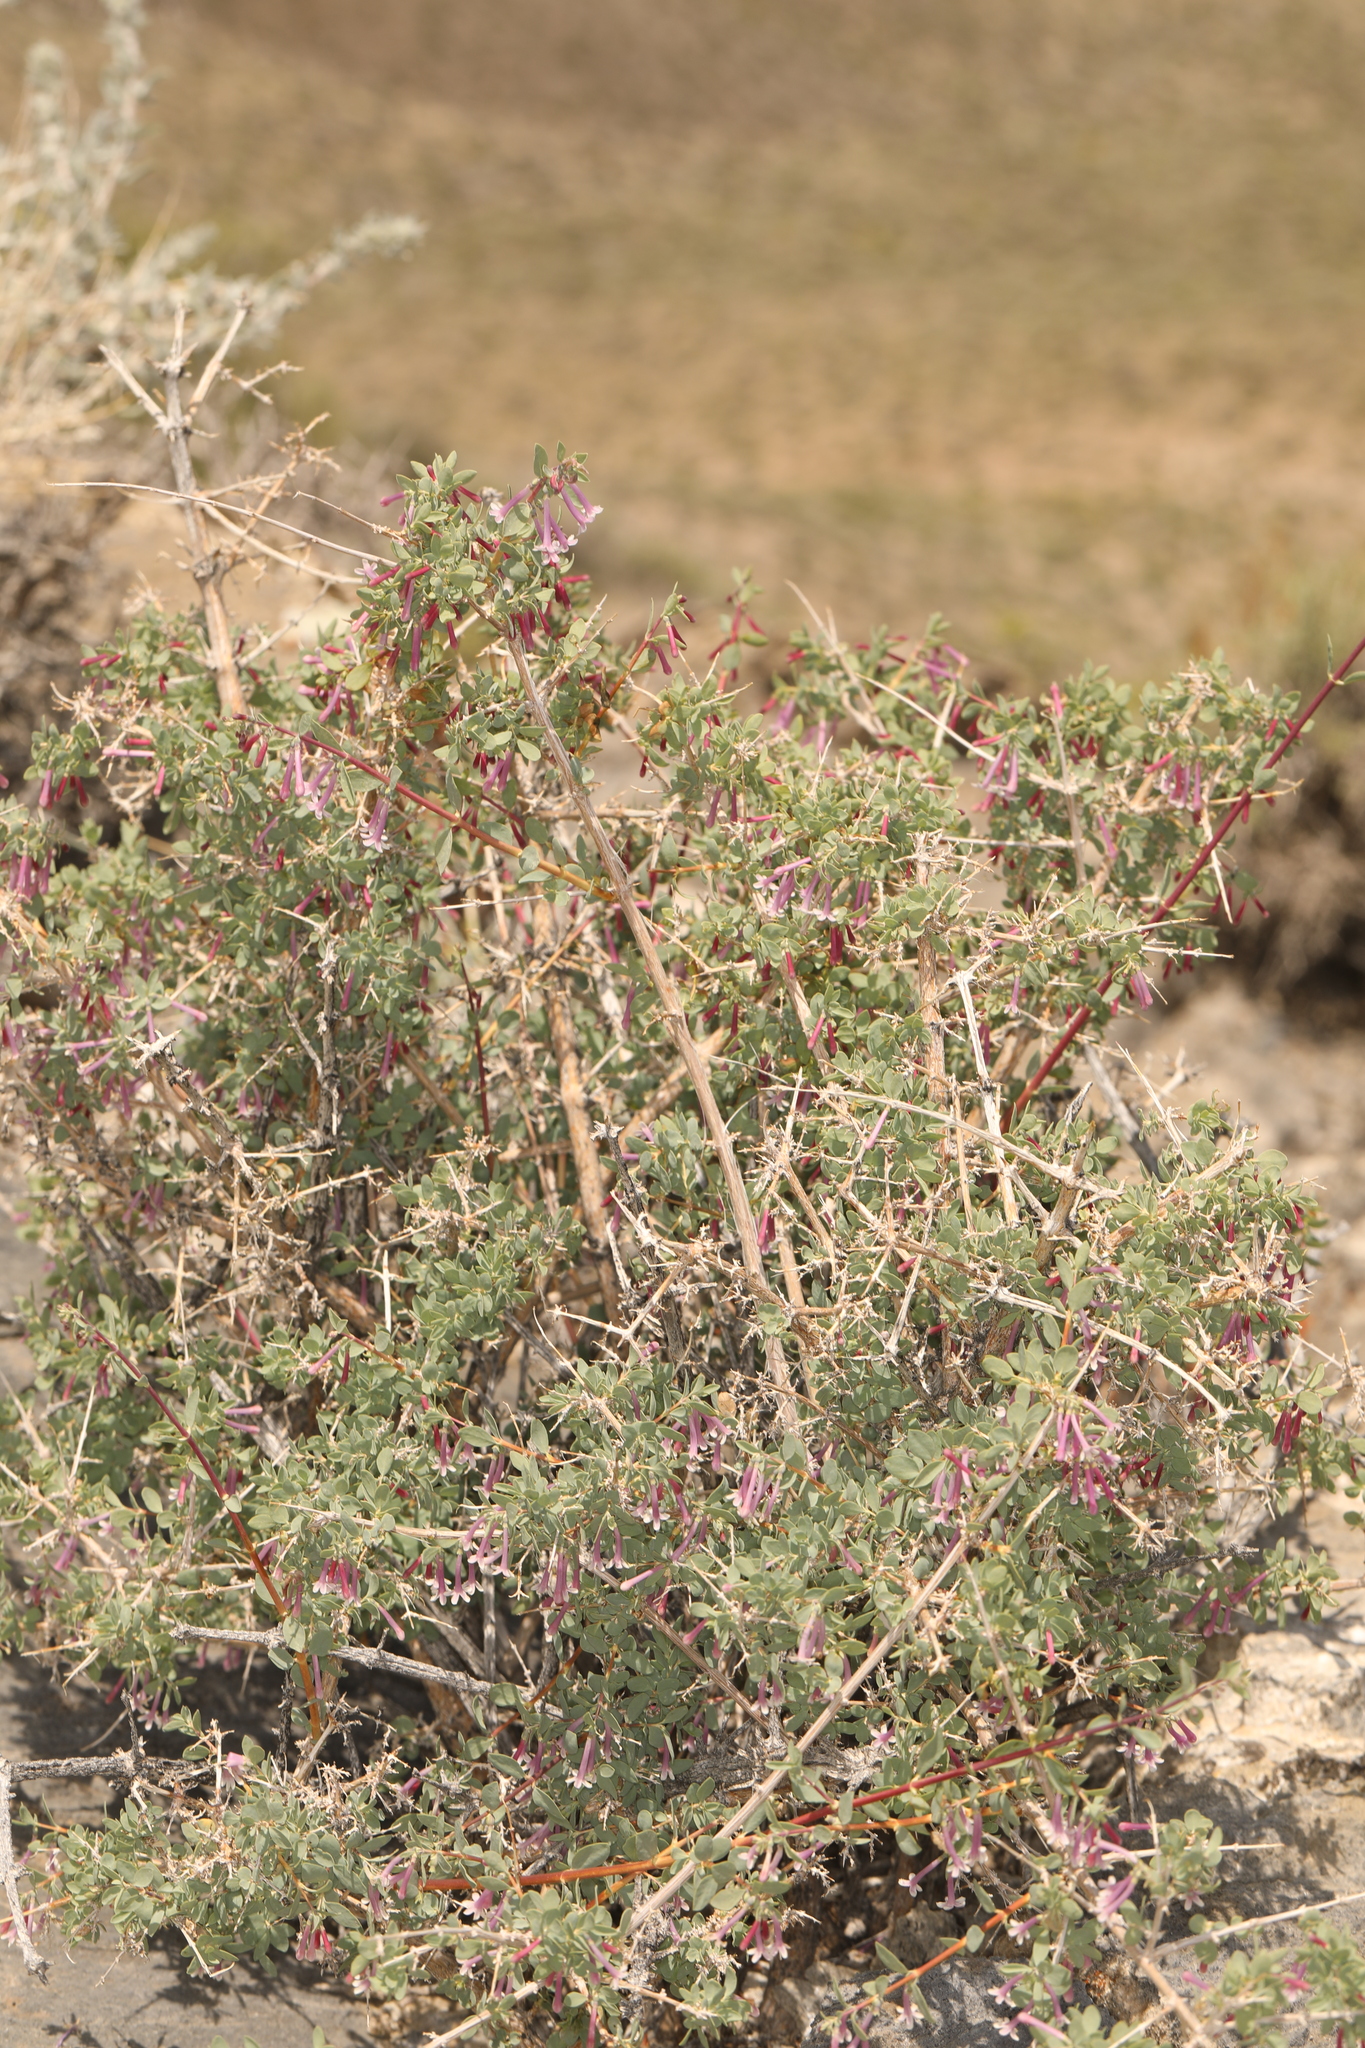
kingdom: Plantae
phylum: Tracheophyta
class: Magnoliopsida
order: Dipsacales
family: Caprifoliaceae
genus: Symphoricarpos
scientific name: Symphoricarpos longiflorus
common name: Fragrant snowberry
